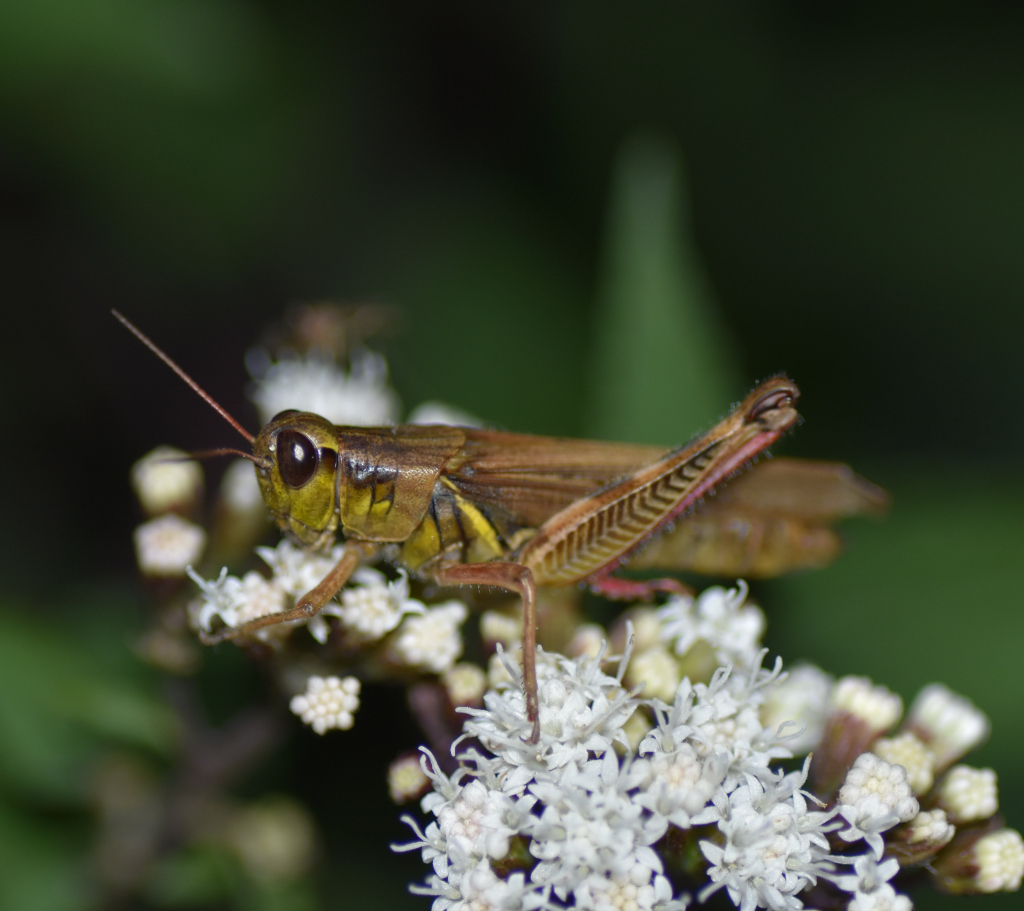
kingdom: Animalia
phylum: Arthropoda
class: Insecta
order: Orthoptera
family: Acrididae
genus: Melanoplus
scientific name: Melanoplus femurrubrum
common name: Red-legged grasshopper
